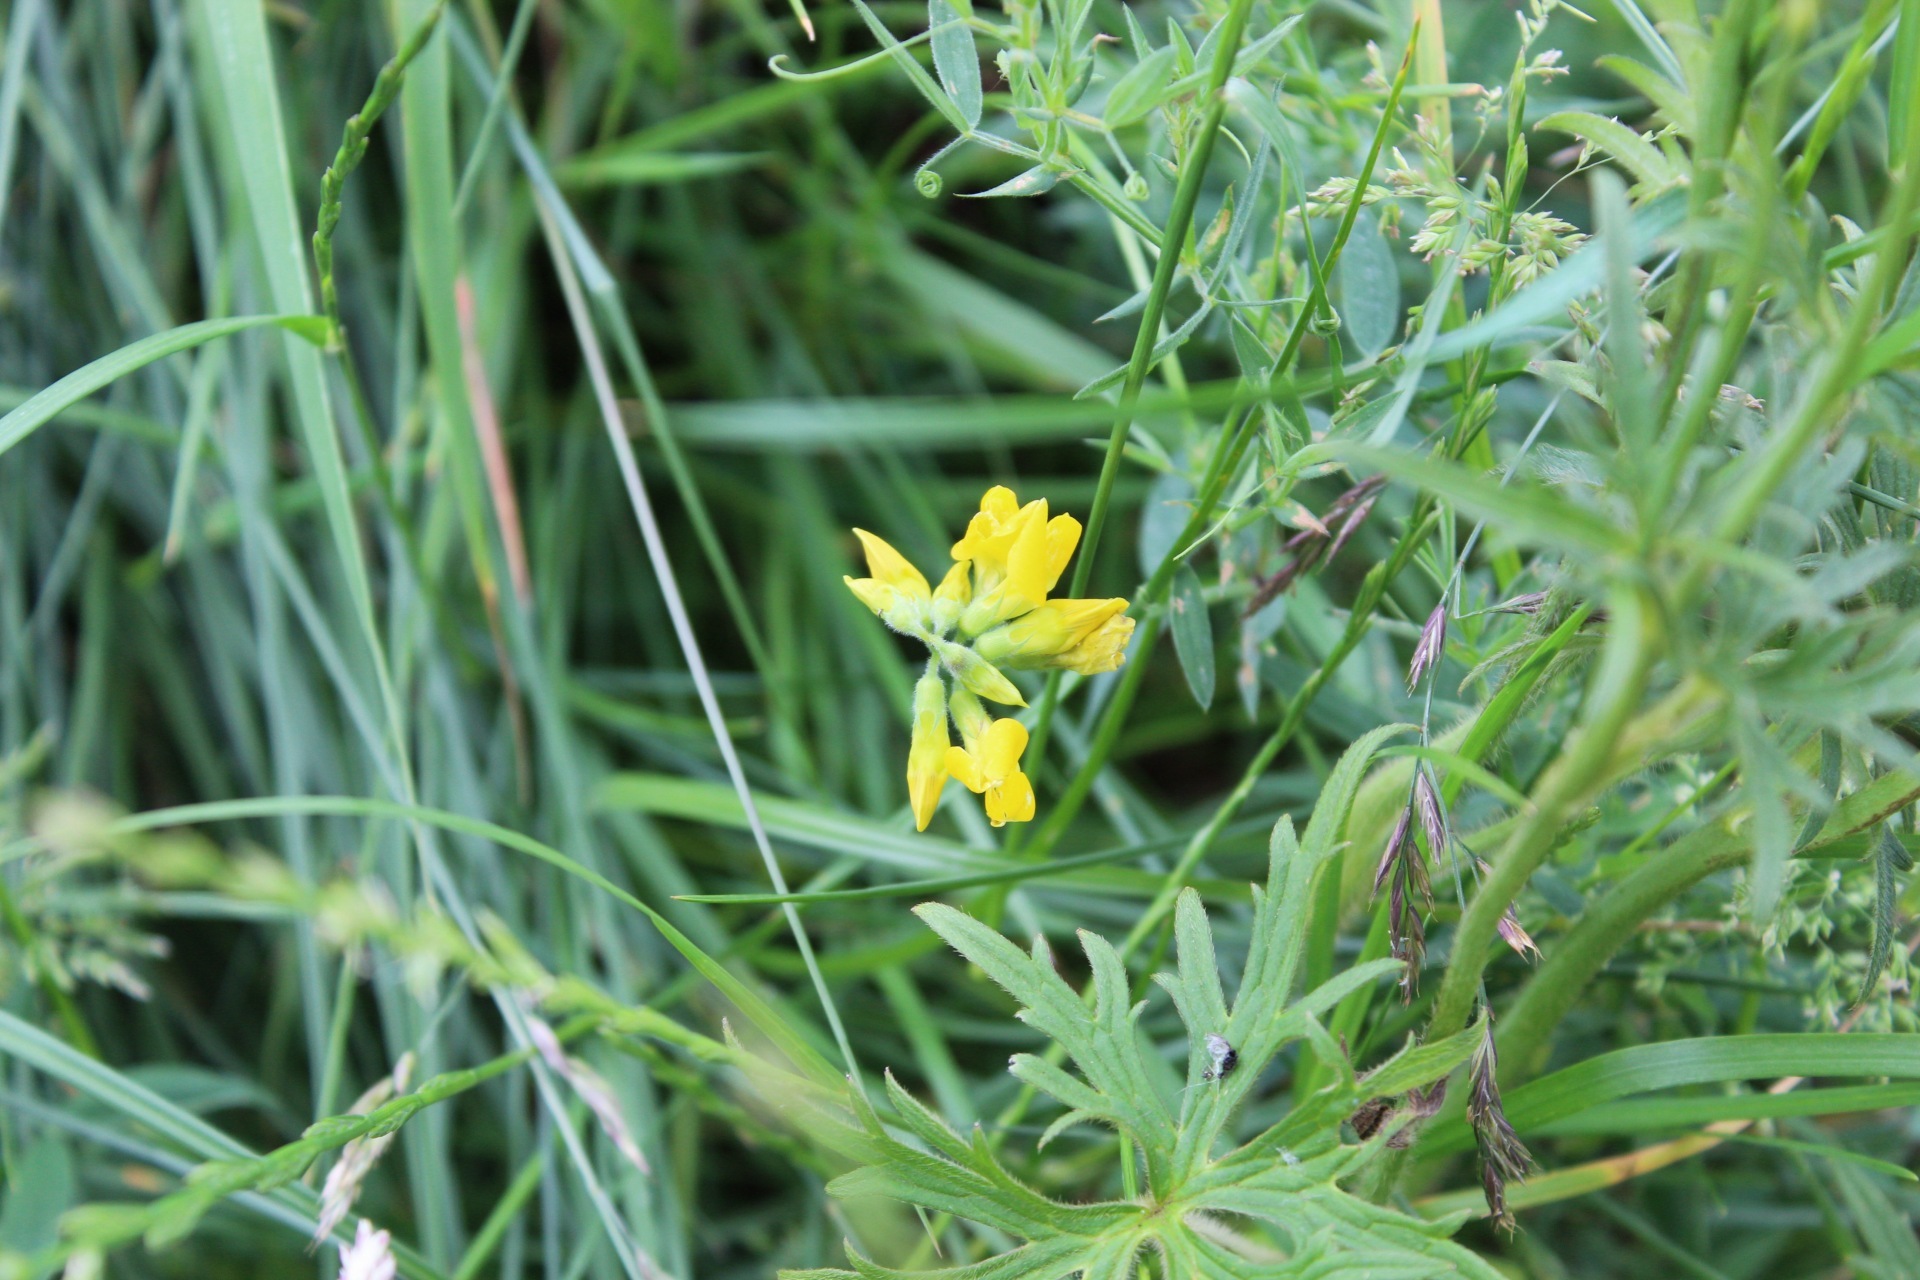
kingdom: Plantae
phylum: Tracheophyta
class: Magnoliopsida
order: Fabales
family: Fabaceae
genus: Lathyrus
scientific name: Lathyrus pratensis
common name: Meadow vetchling
